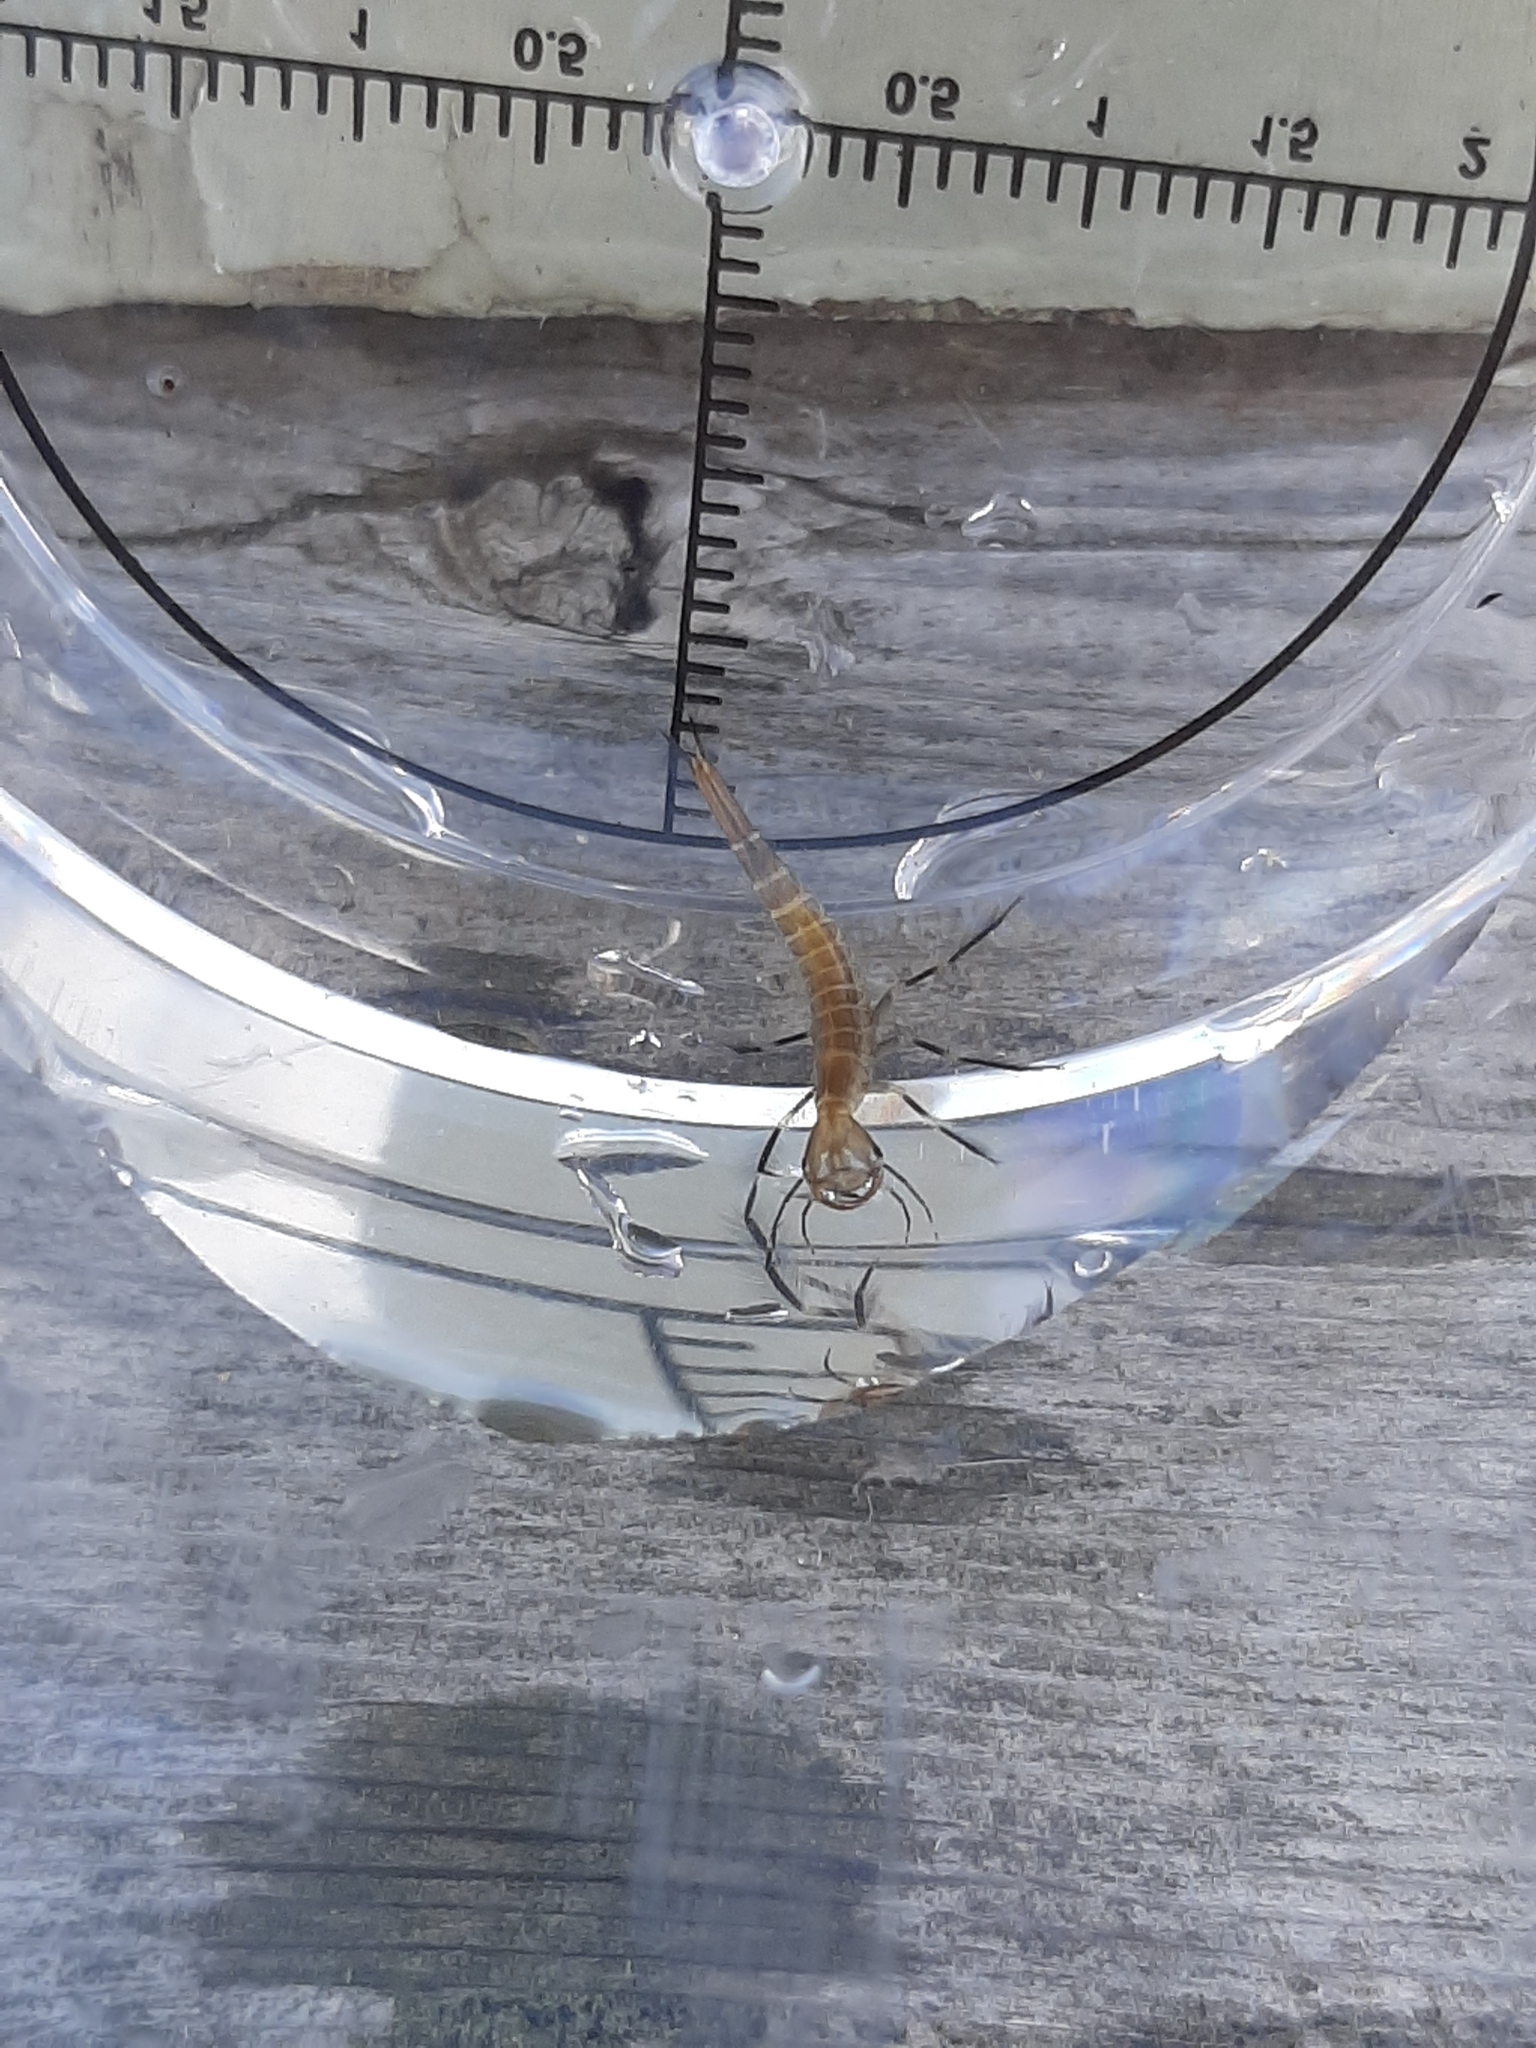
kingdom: Animalia
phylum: Arthropoda
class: Insecta
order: Coleoptera
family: Dytiscidae
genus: Dytiscus
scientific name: Dytiscus
